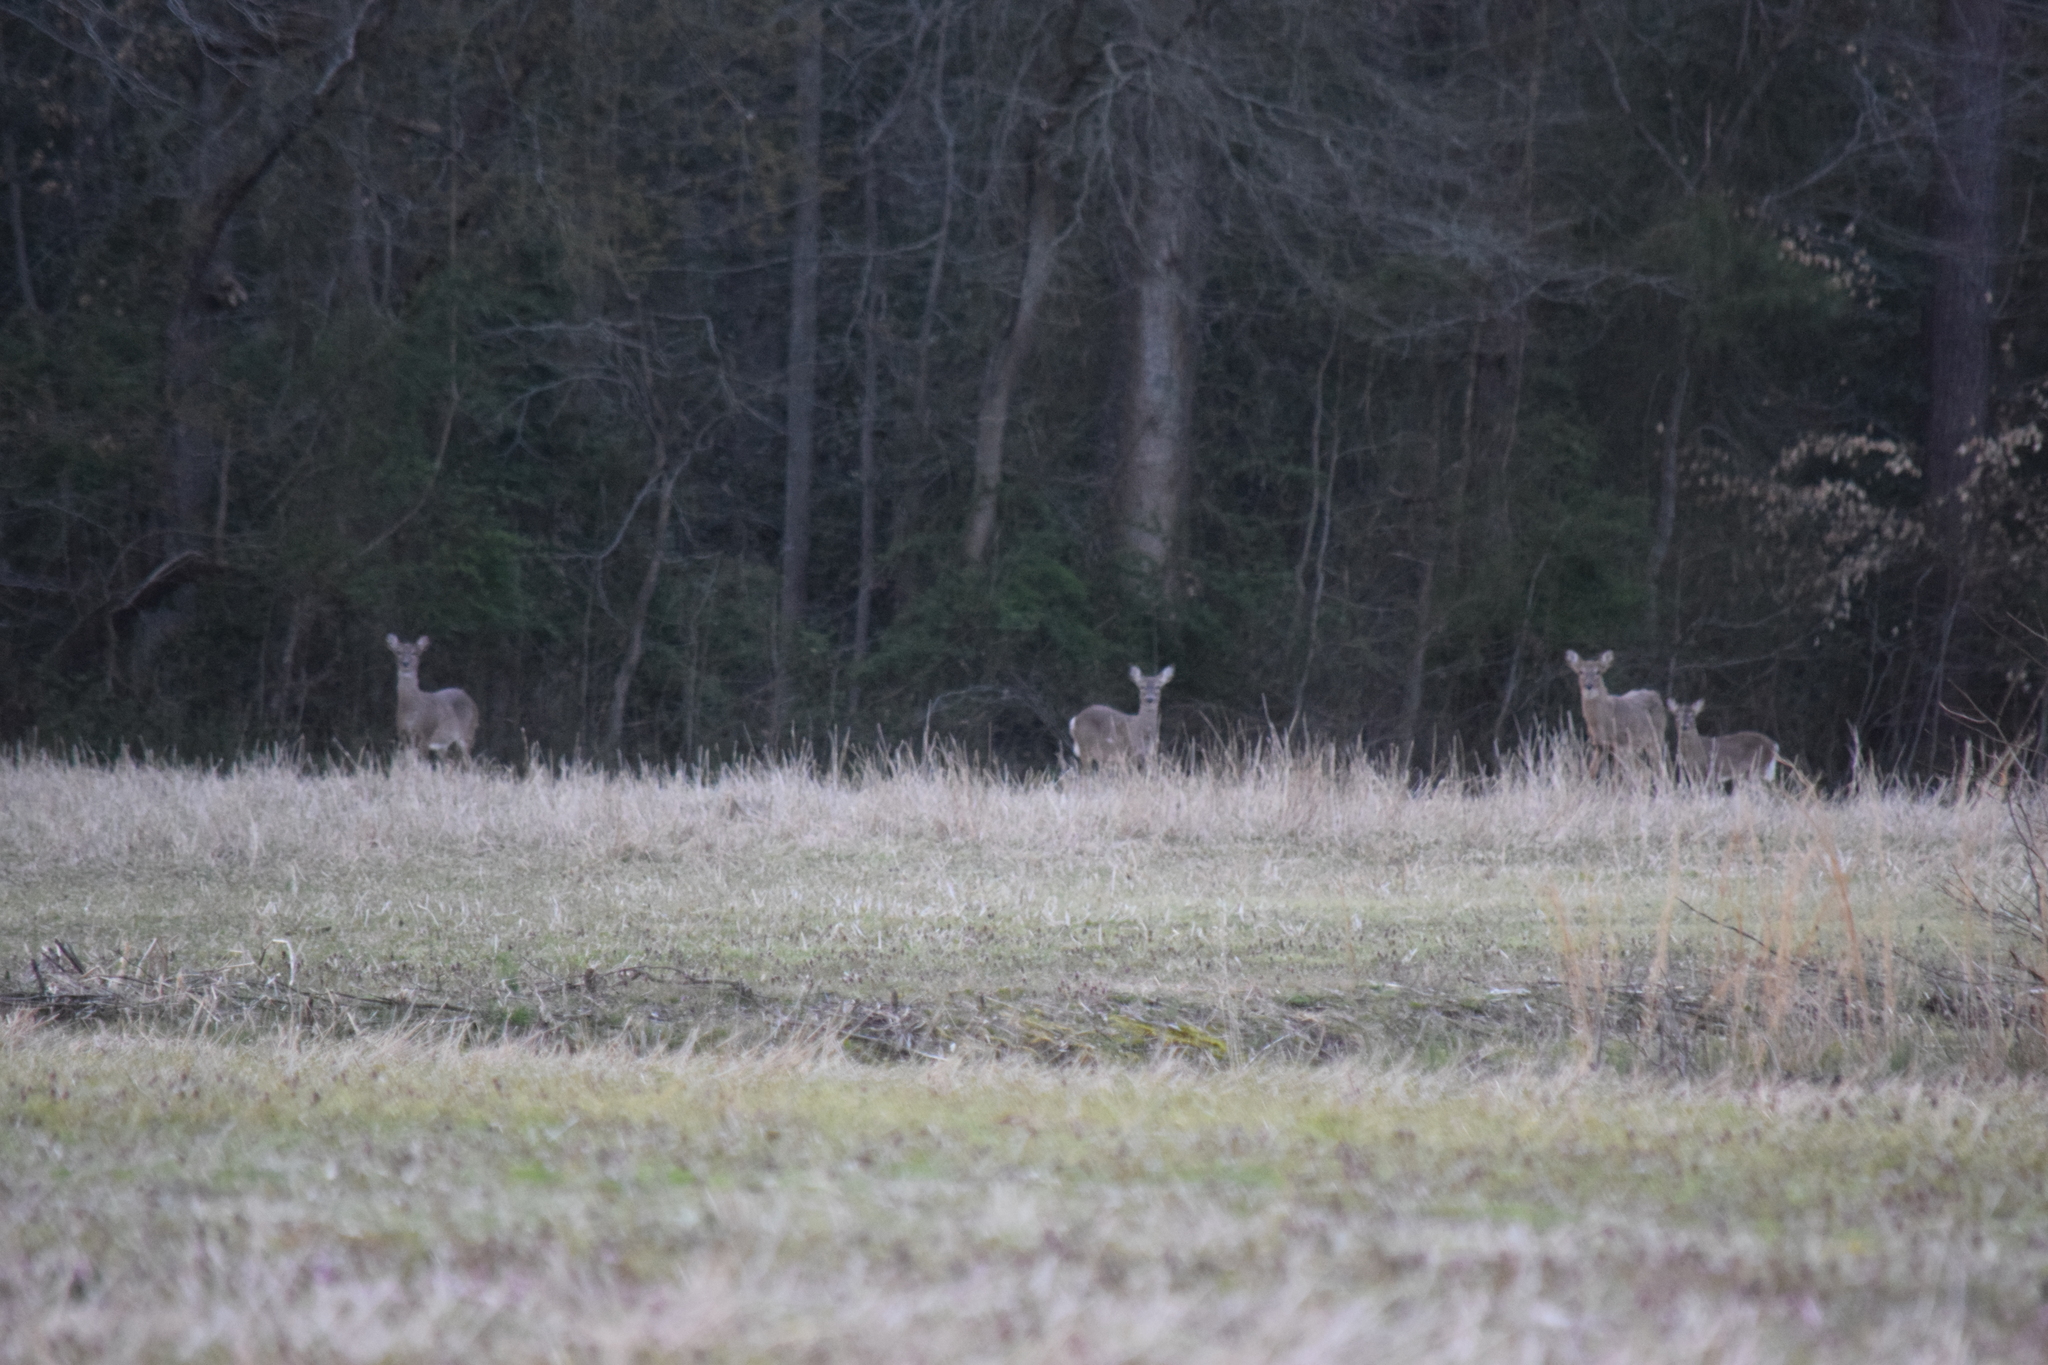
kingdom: Animalia
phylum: Chordata
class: Mammalia
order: Artiodactyla
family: Cervidae
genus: Odocoileus
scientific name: Odocoileus virginianus
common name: White-tailed deer
